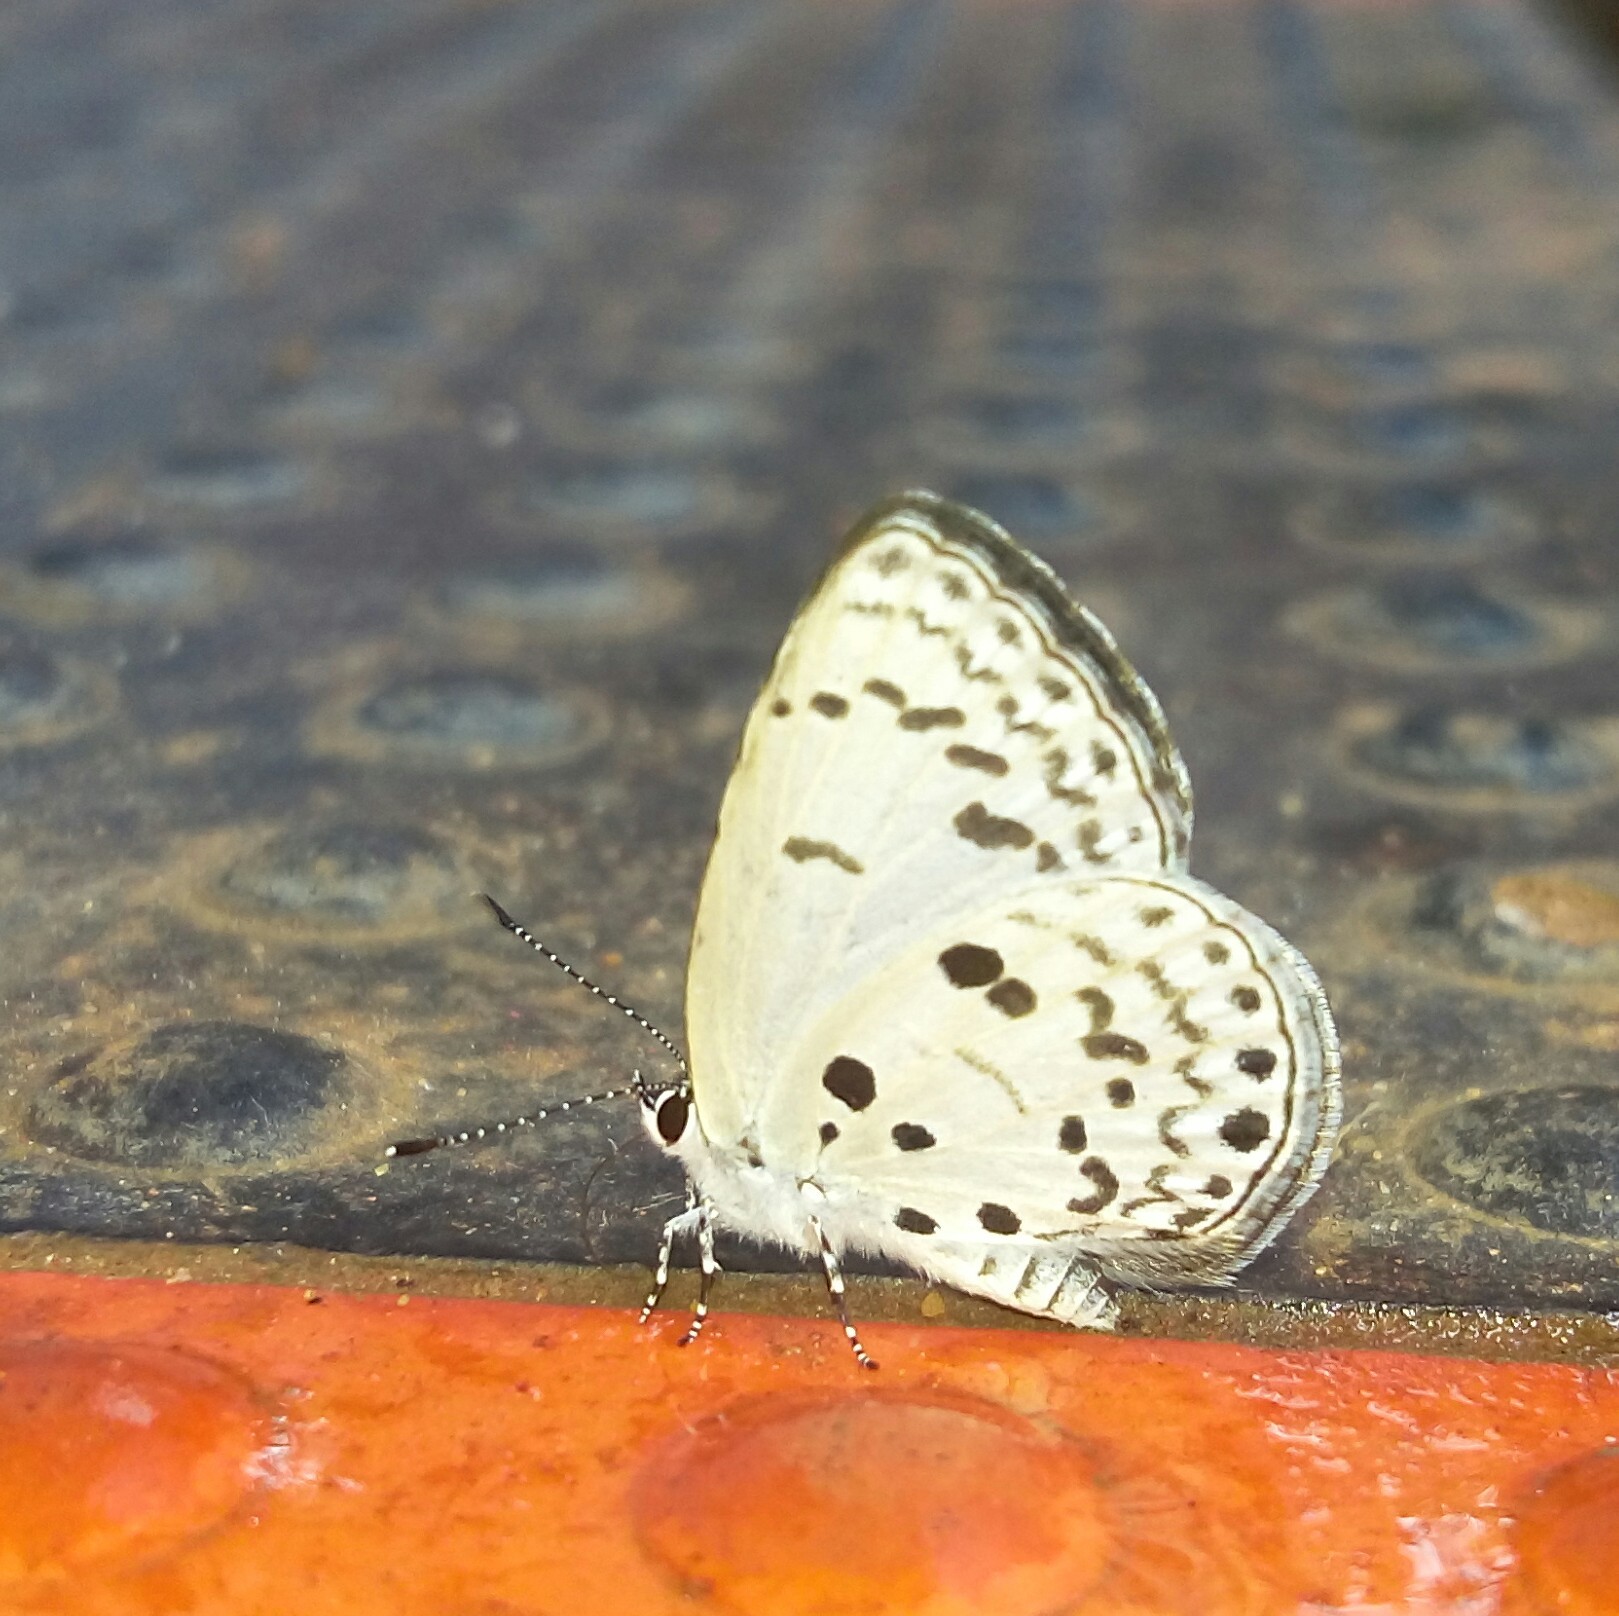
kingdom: Animalia
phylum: Arthropoda
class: Insecta
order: Lepidoptera
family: Lycaenidae
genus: Acytolepis
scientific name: Acytolepis puspa
